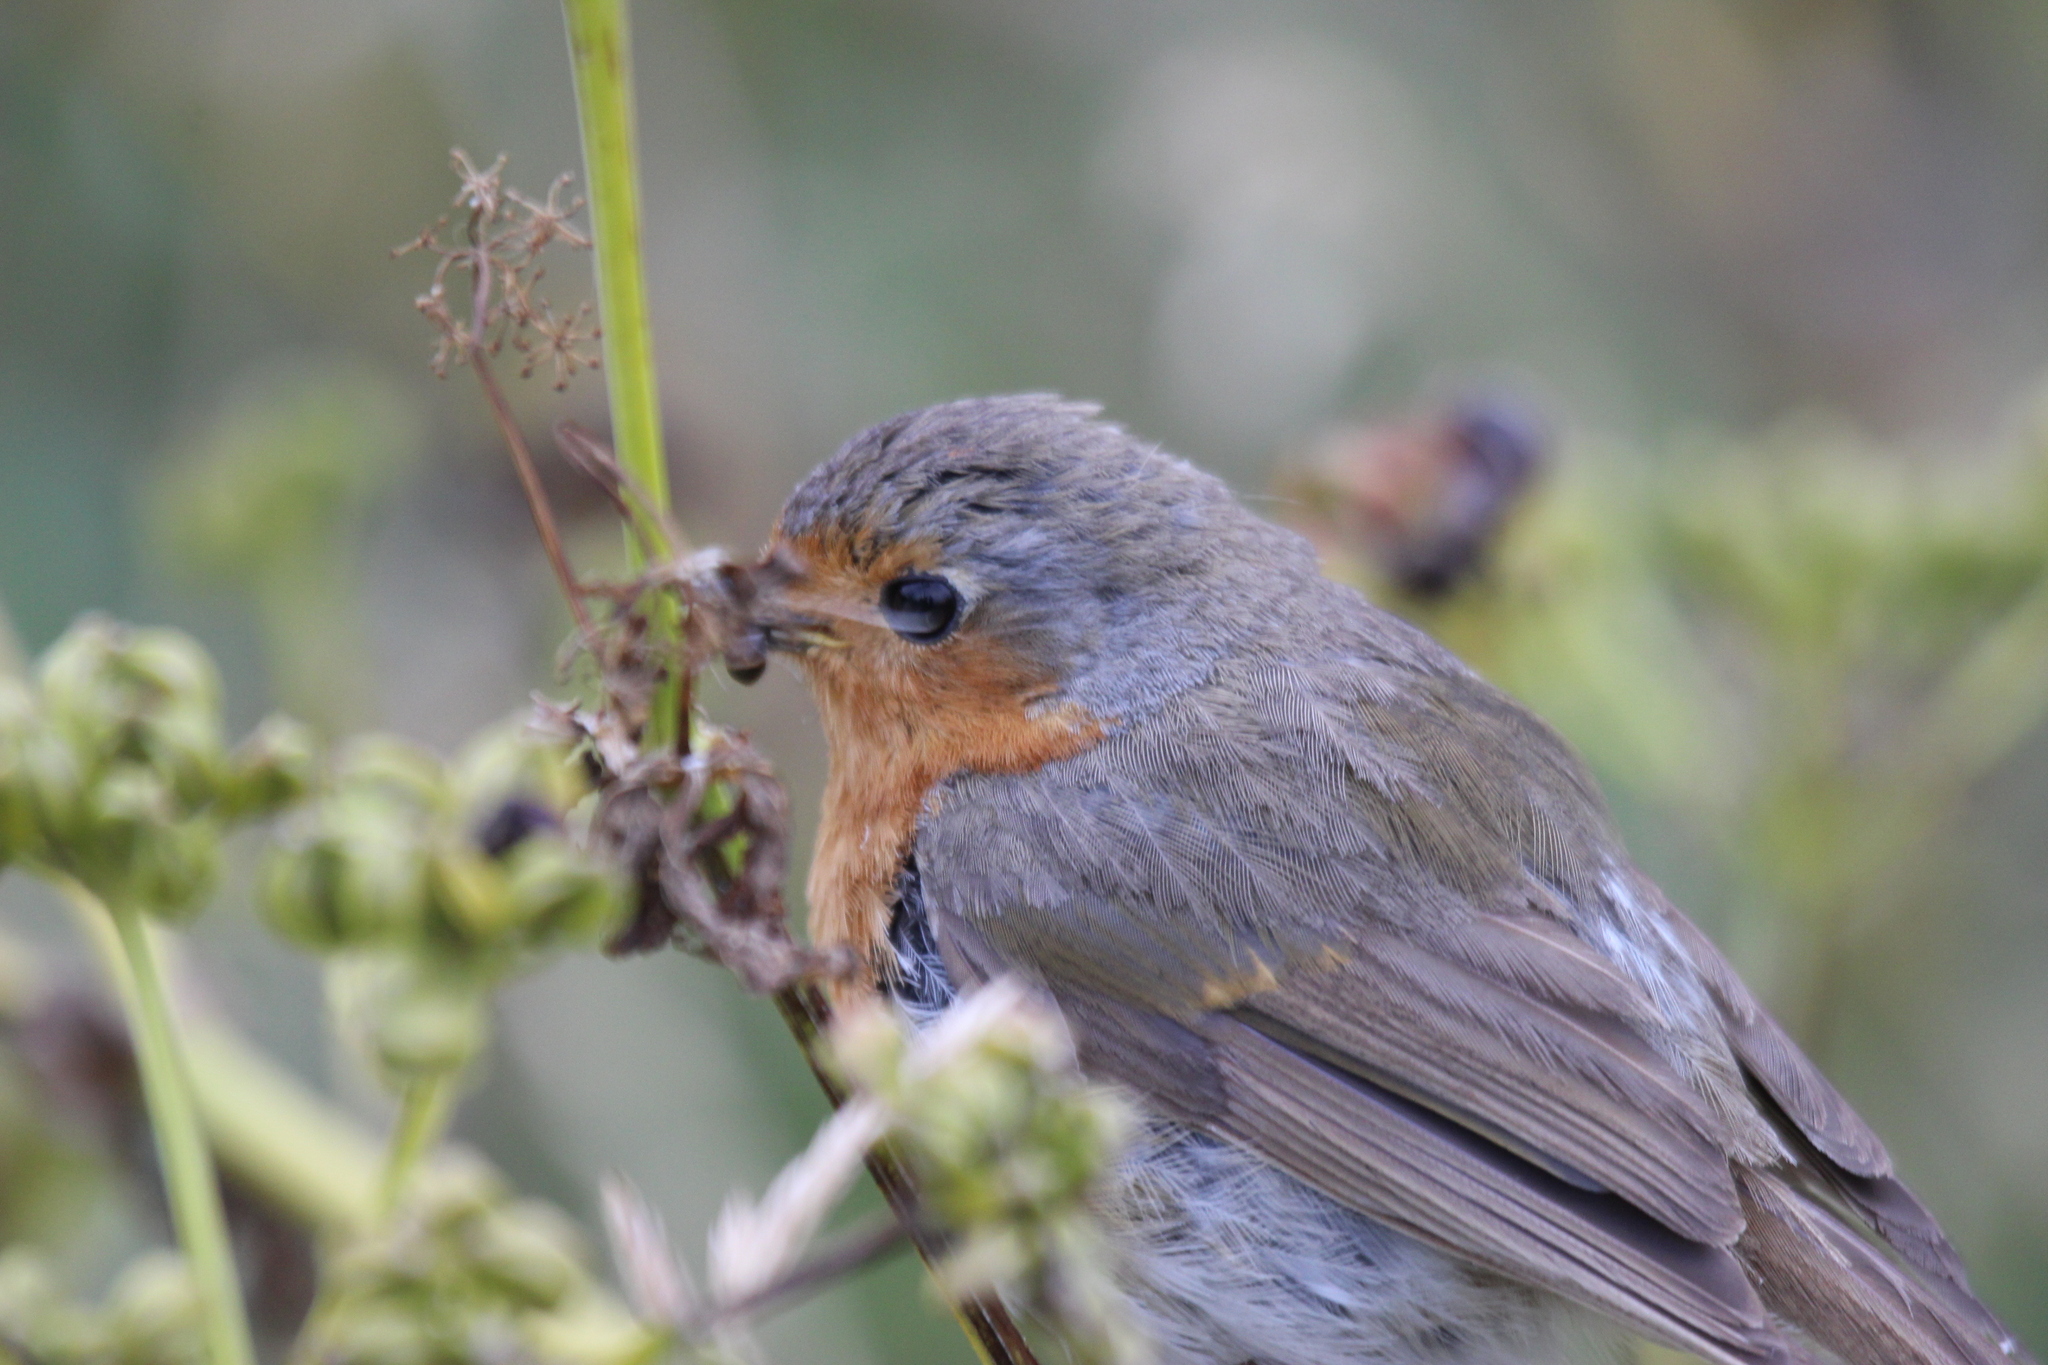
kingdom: Animalia
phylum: Chordata
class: Aves
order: Passeriformes
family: Muscicapidae
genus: Erithacus
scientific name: Erithacus rubecula
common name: European robin
